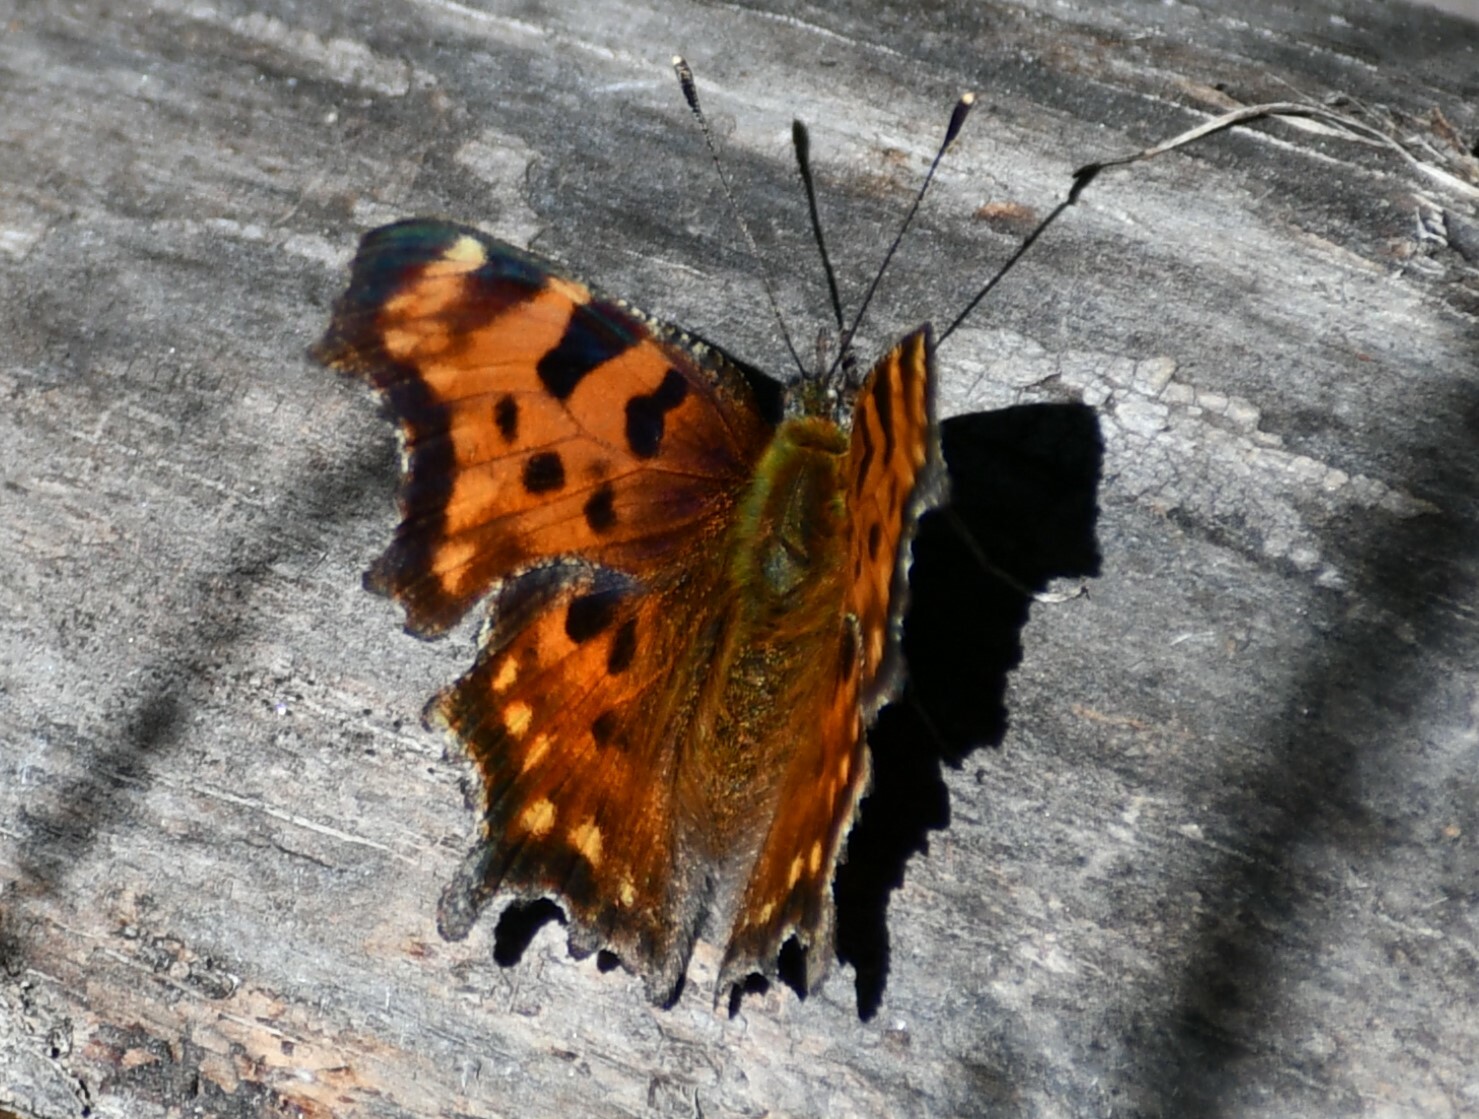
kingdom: Animalia
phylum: Arthropoda
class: Insecta
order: Lepidoptera
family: Nymphalidae
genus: Polygonia
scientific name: Polygonia faunus
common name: Green comma
